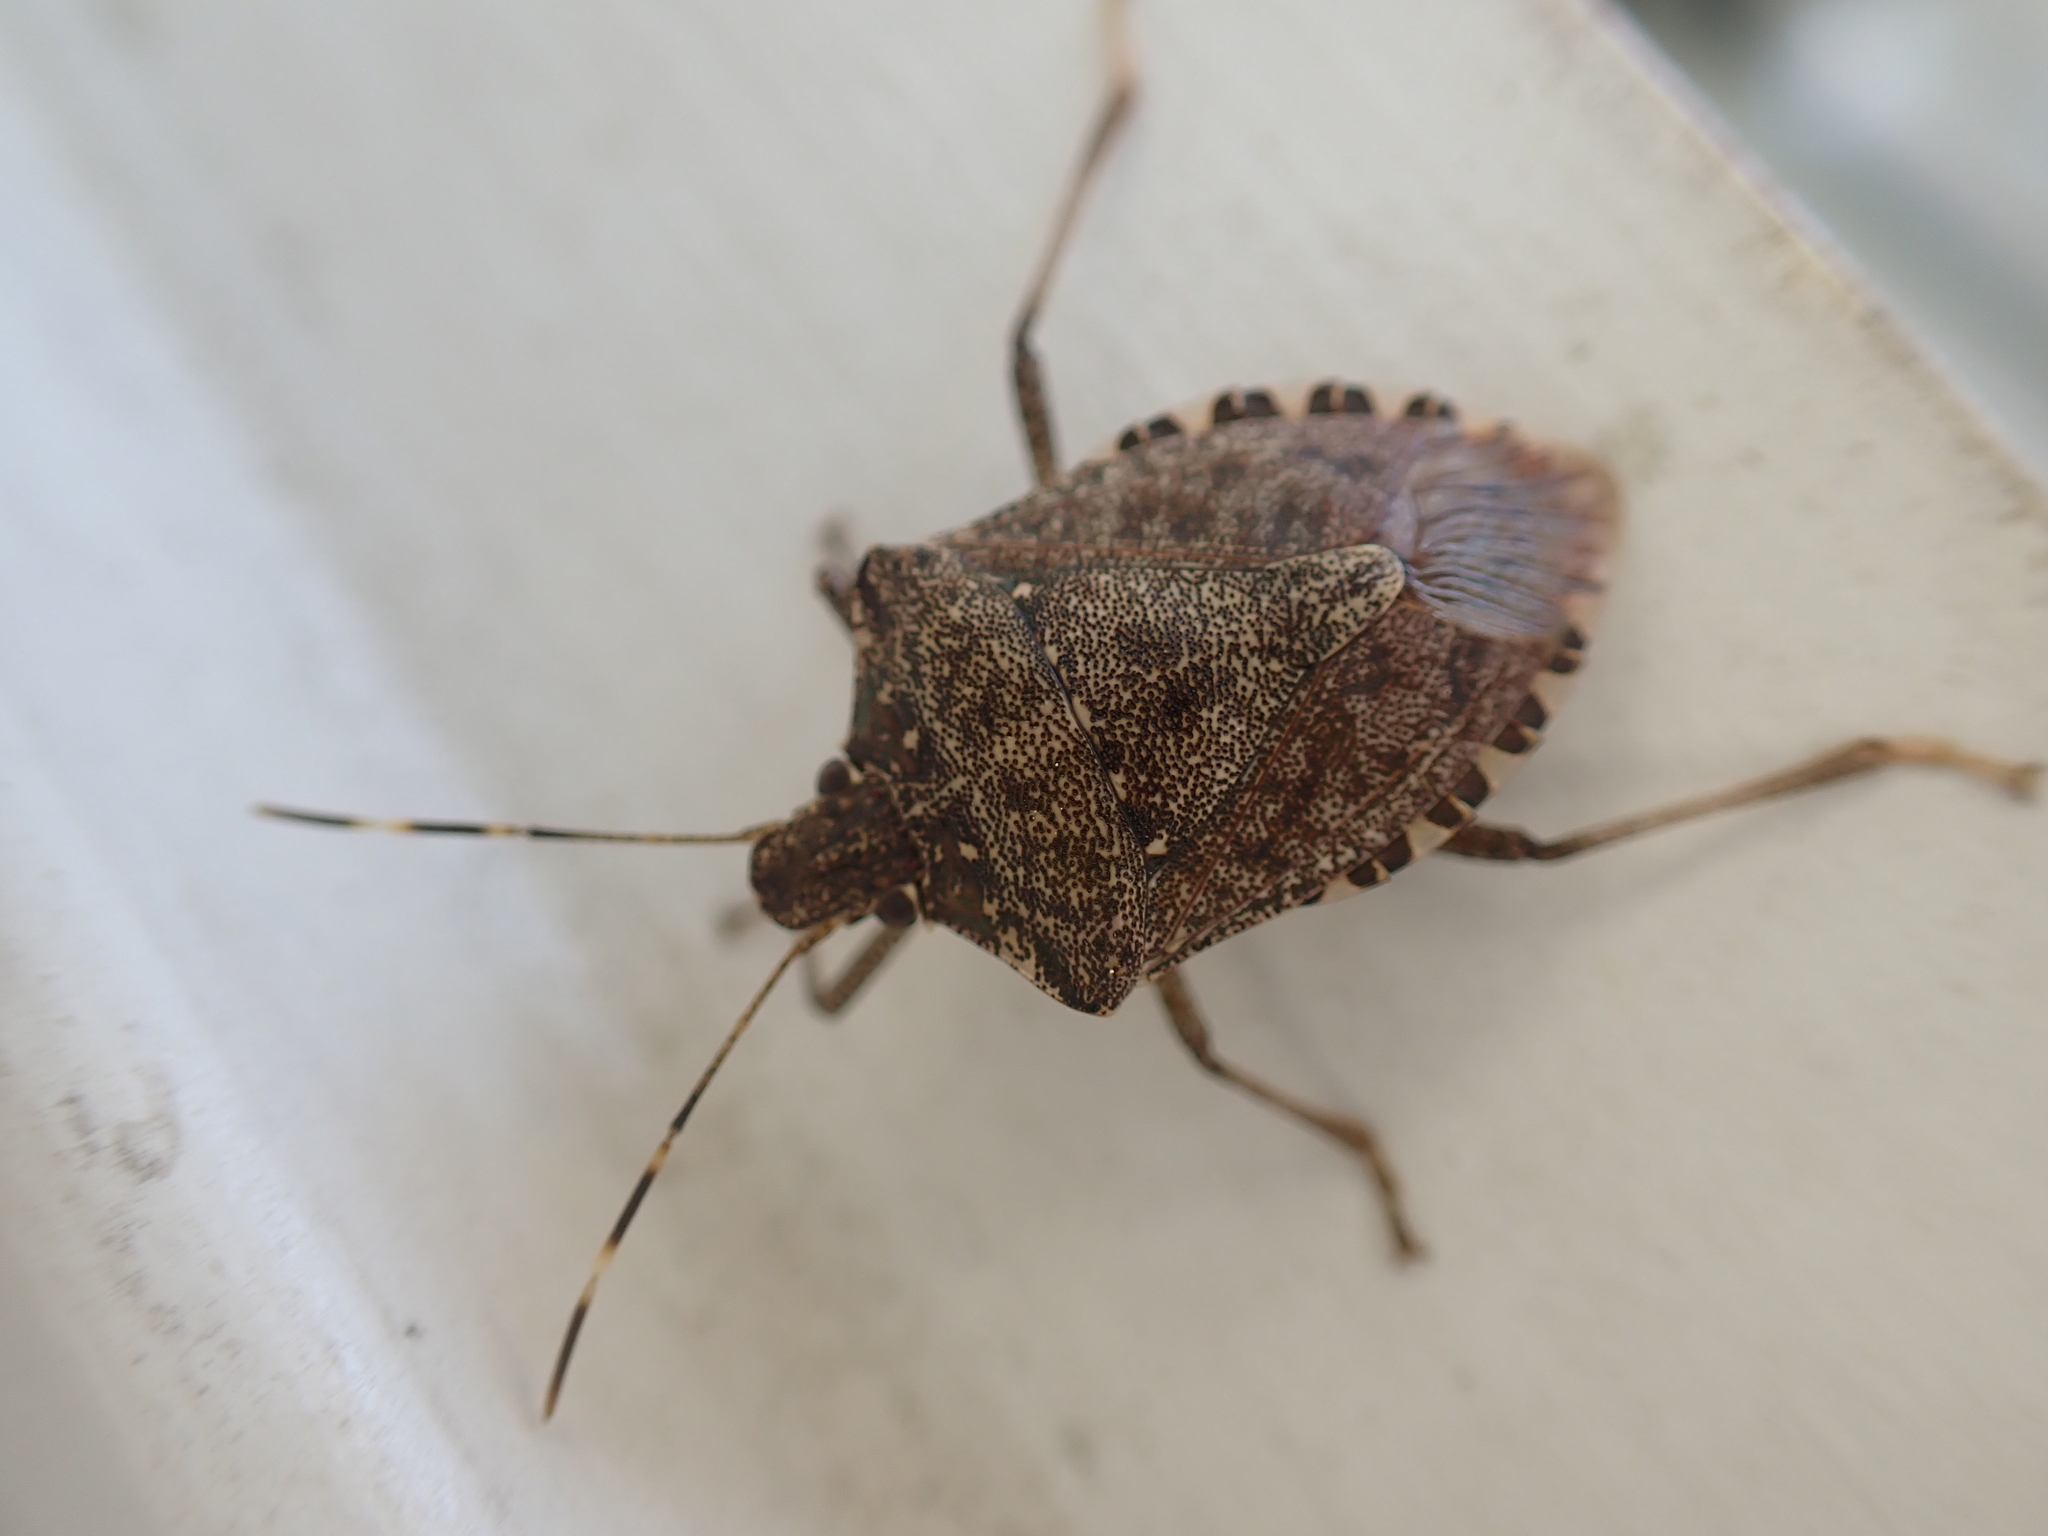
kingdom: Animalia
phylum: Arthropoda
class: Insecta
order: Hemiptera
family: Pentatomidae
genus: Halyomorpha
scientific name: Halyomorpha halys
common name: Brown marmorated stink bug
